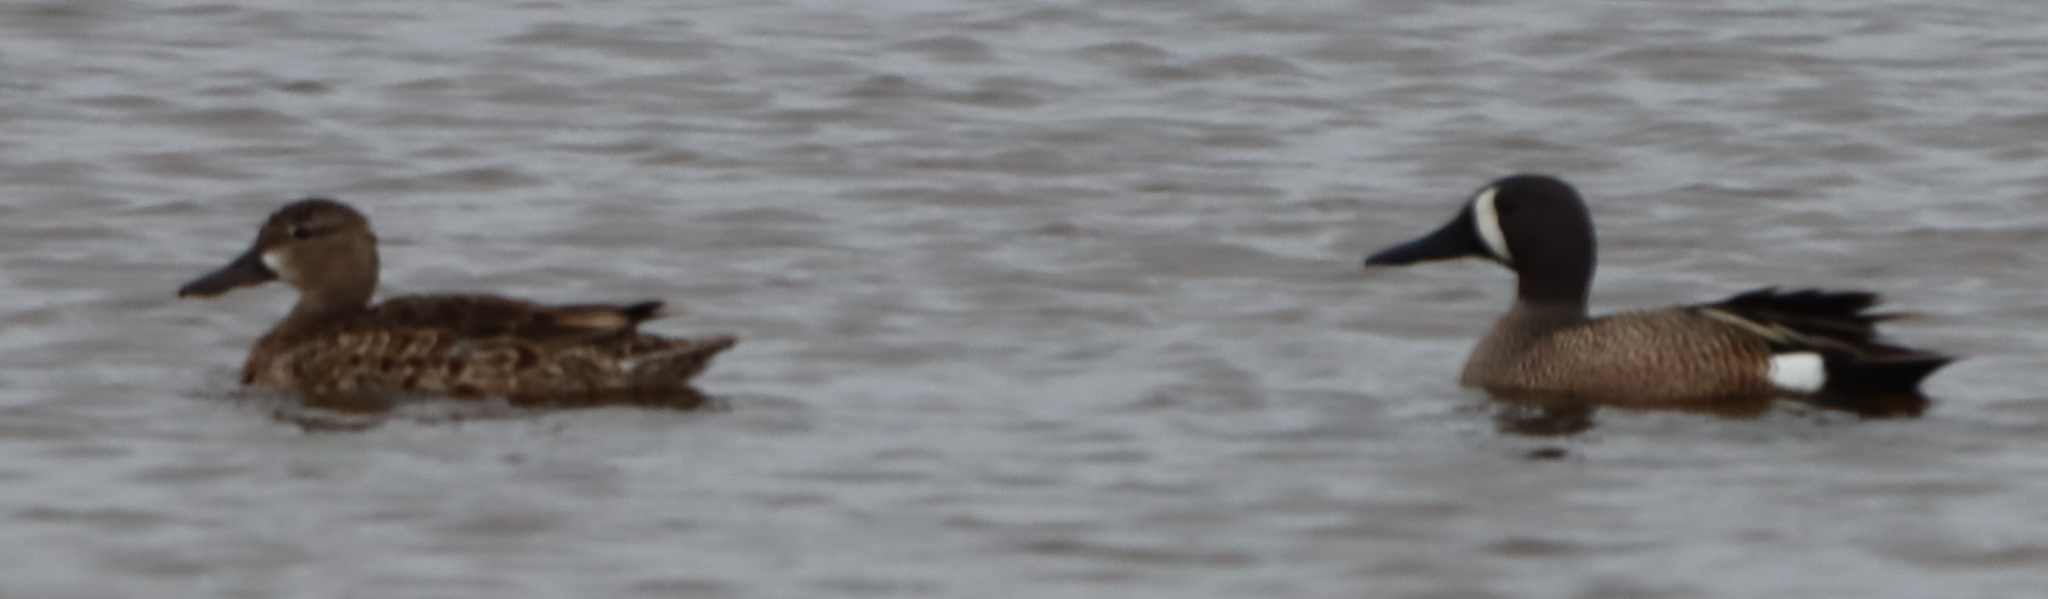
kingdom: Animalia
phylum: Chordata
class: Aves
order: Anseriformes
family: Anatidae
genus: Spatula
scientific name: Spatula discors
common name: Blue-winged teal
